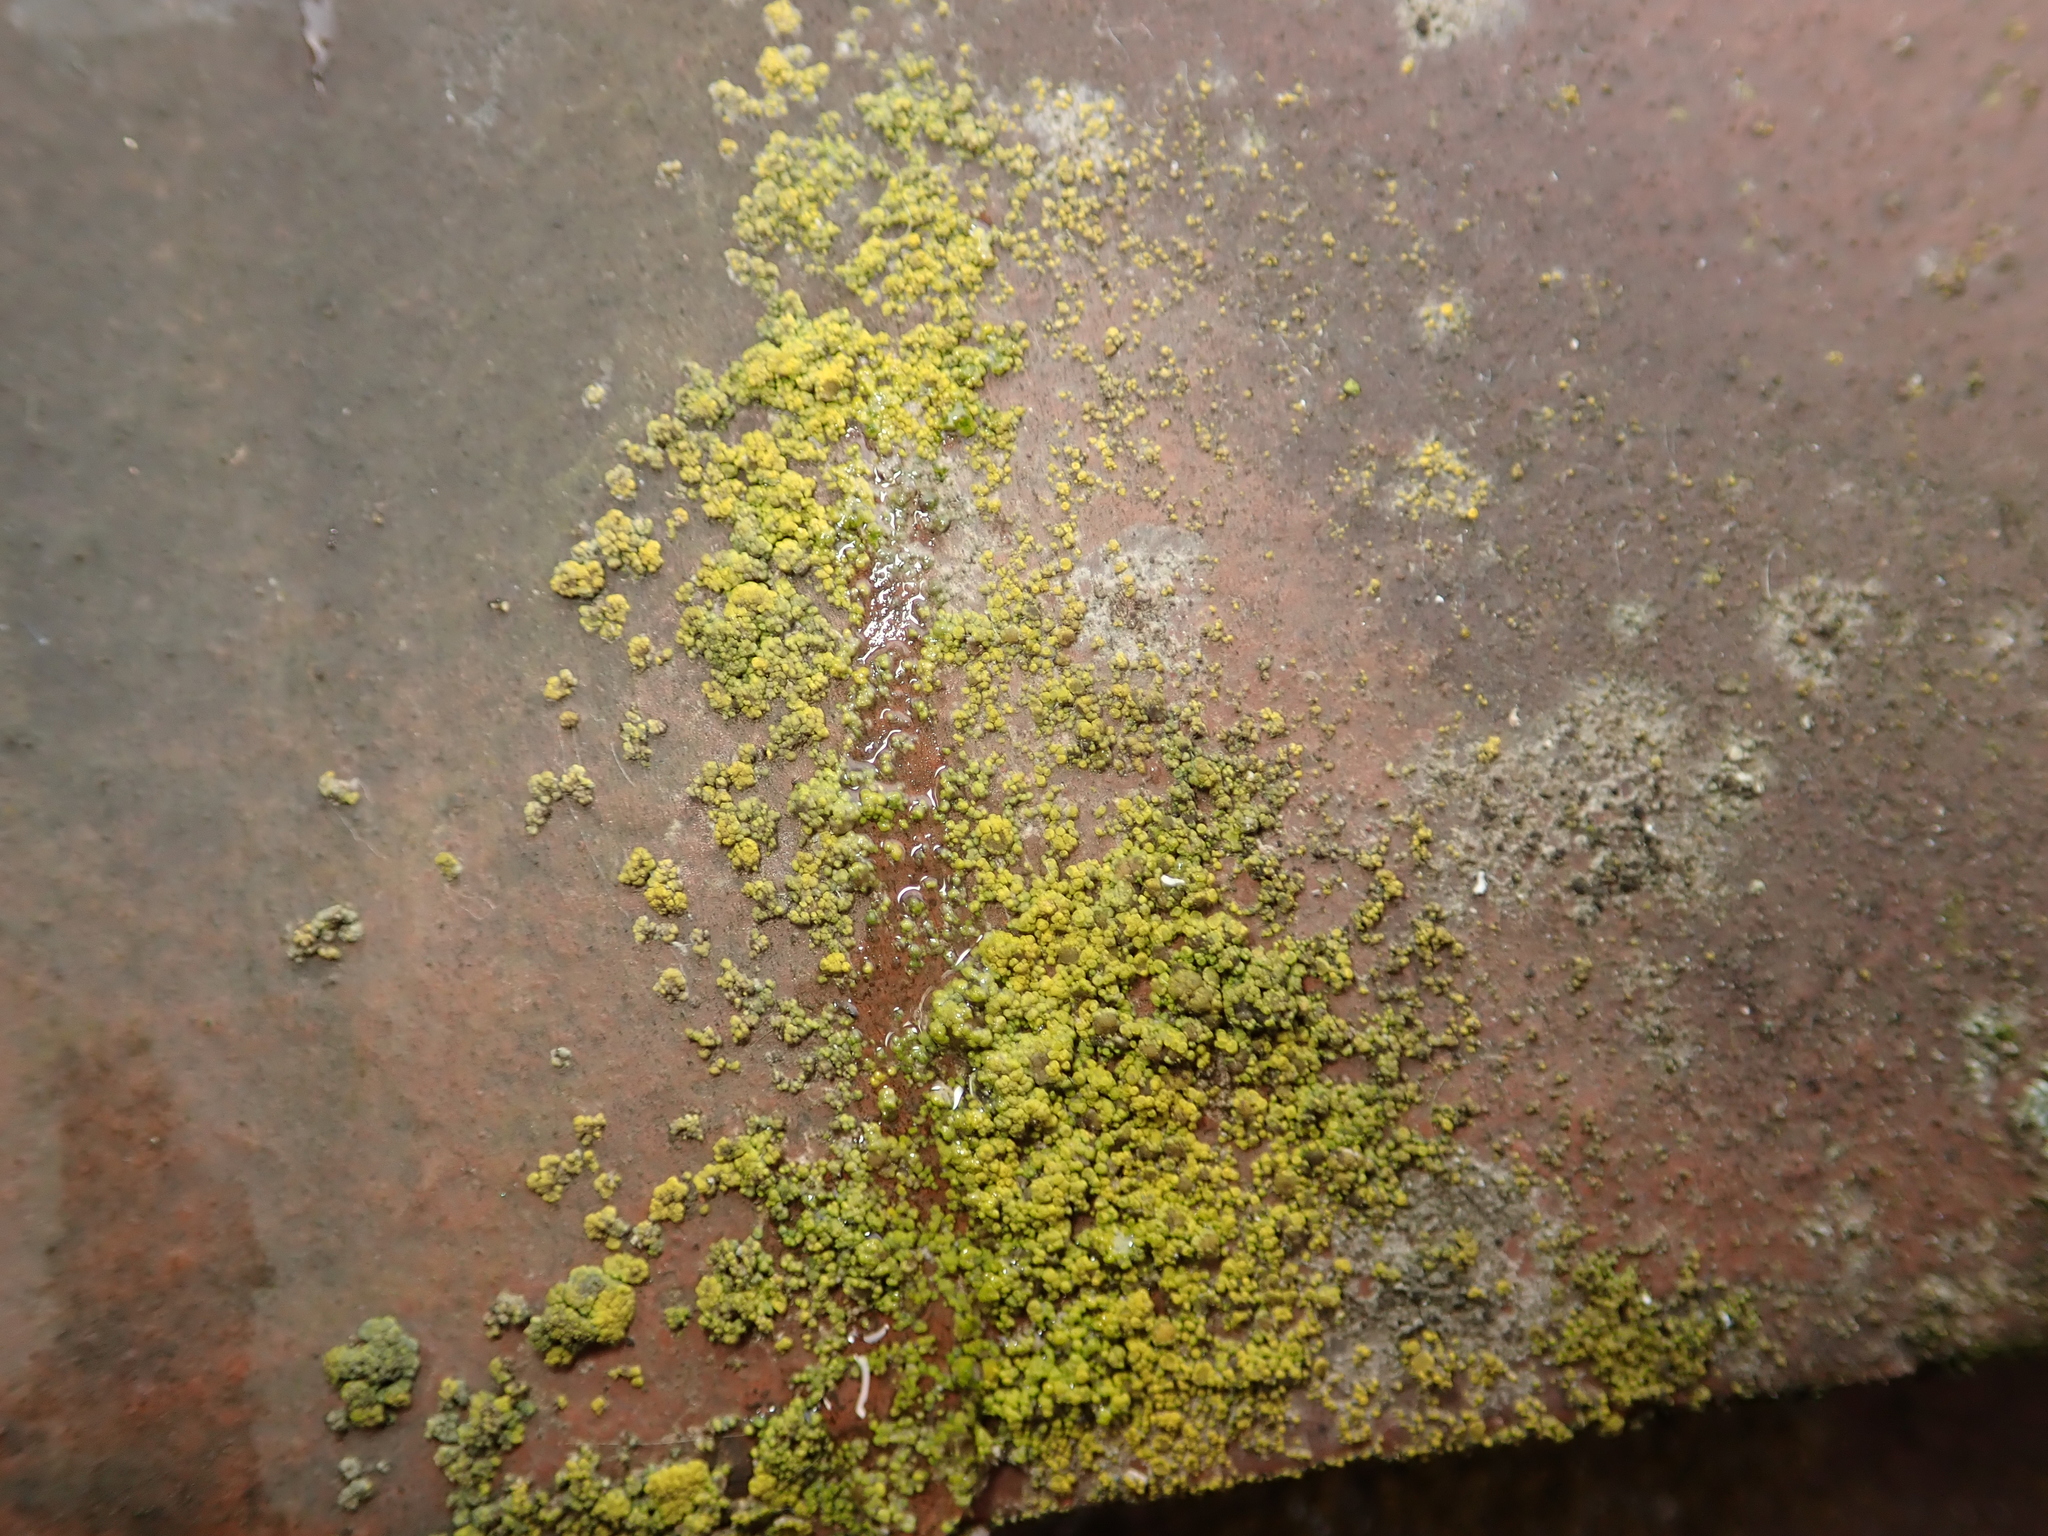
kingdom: Fungi
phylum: Ascomycota
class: Candelariomycetes
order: Candelariales
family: Candelariaceae
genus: Candelariella
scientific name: Candelariella vitellina
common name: Common goldspeck
